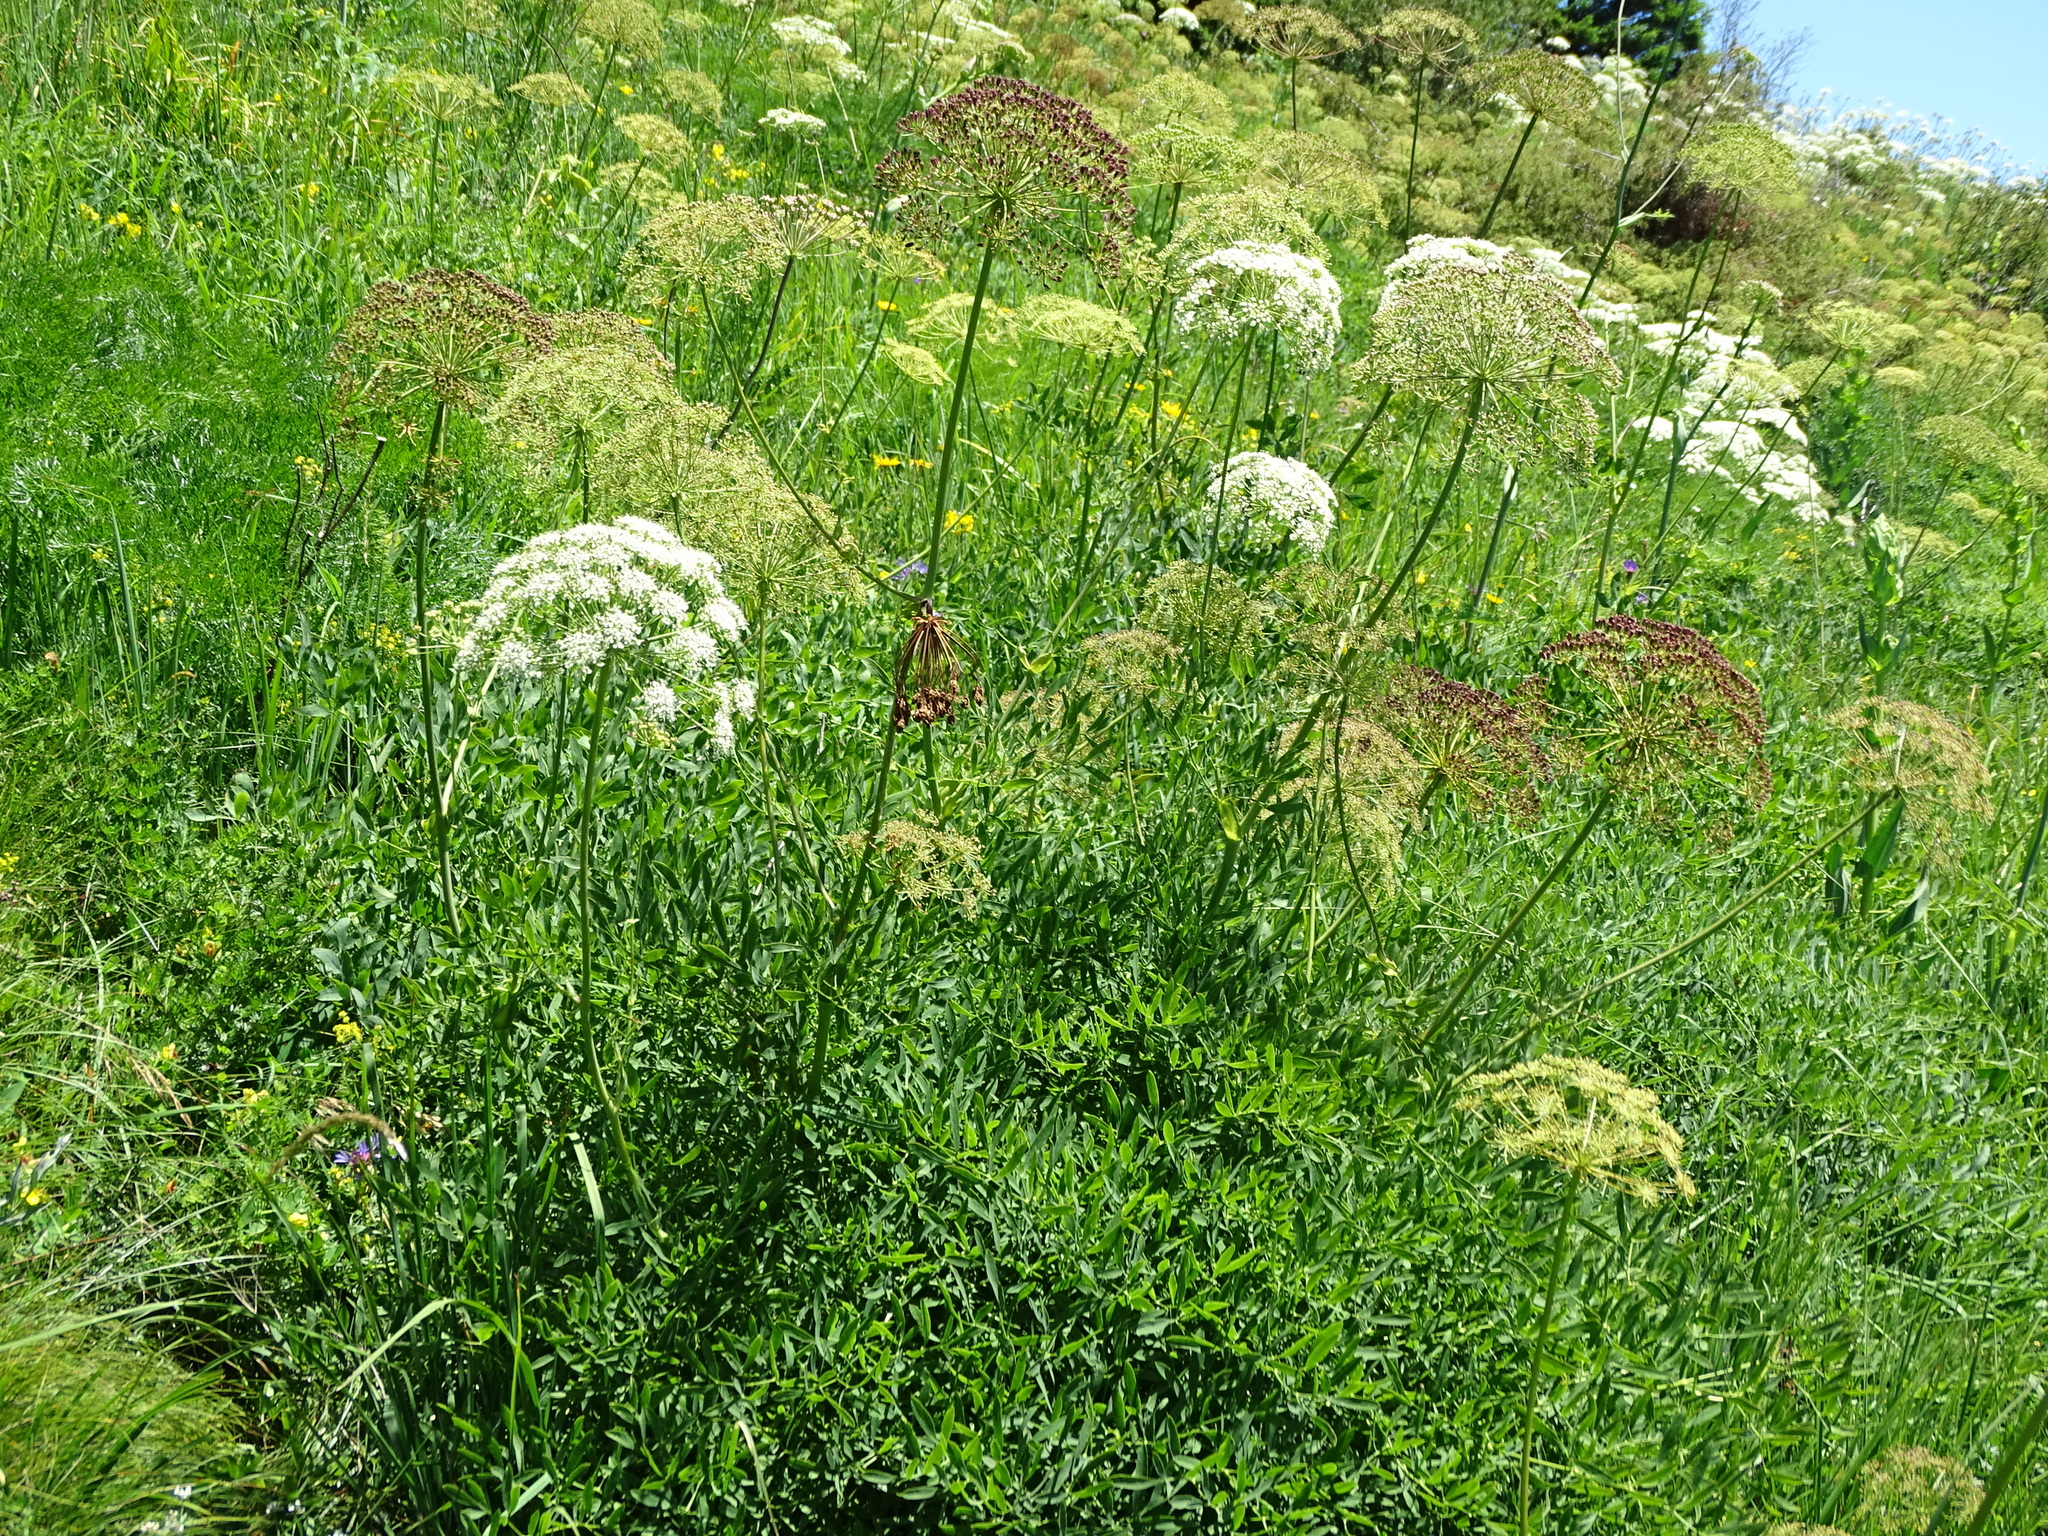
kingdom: Plantae
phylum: Tracheophyta
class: Magnoliopsida
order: Apiales
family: Apiaceae
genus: Siler
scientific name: Siler montanum
